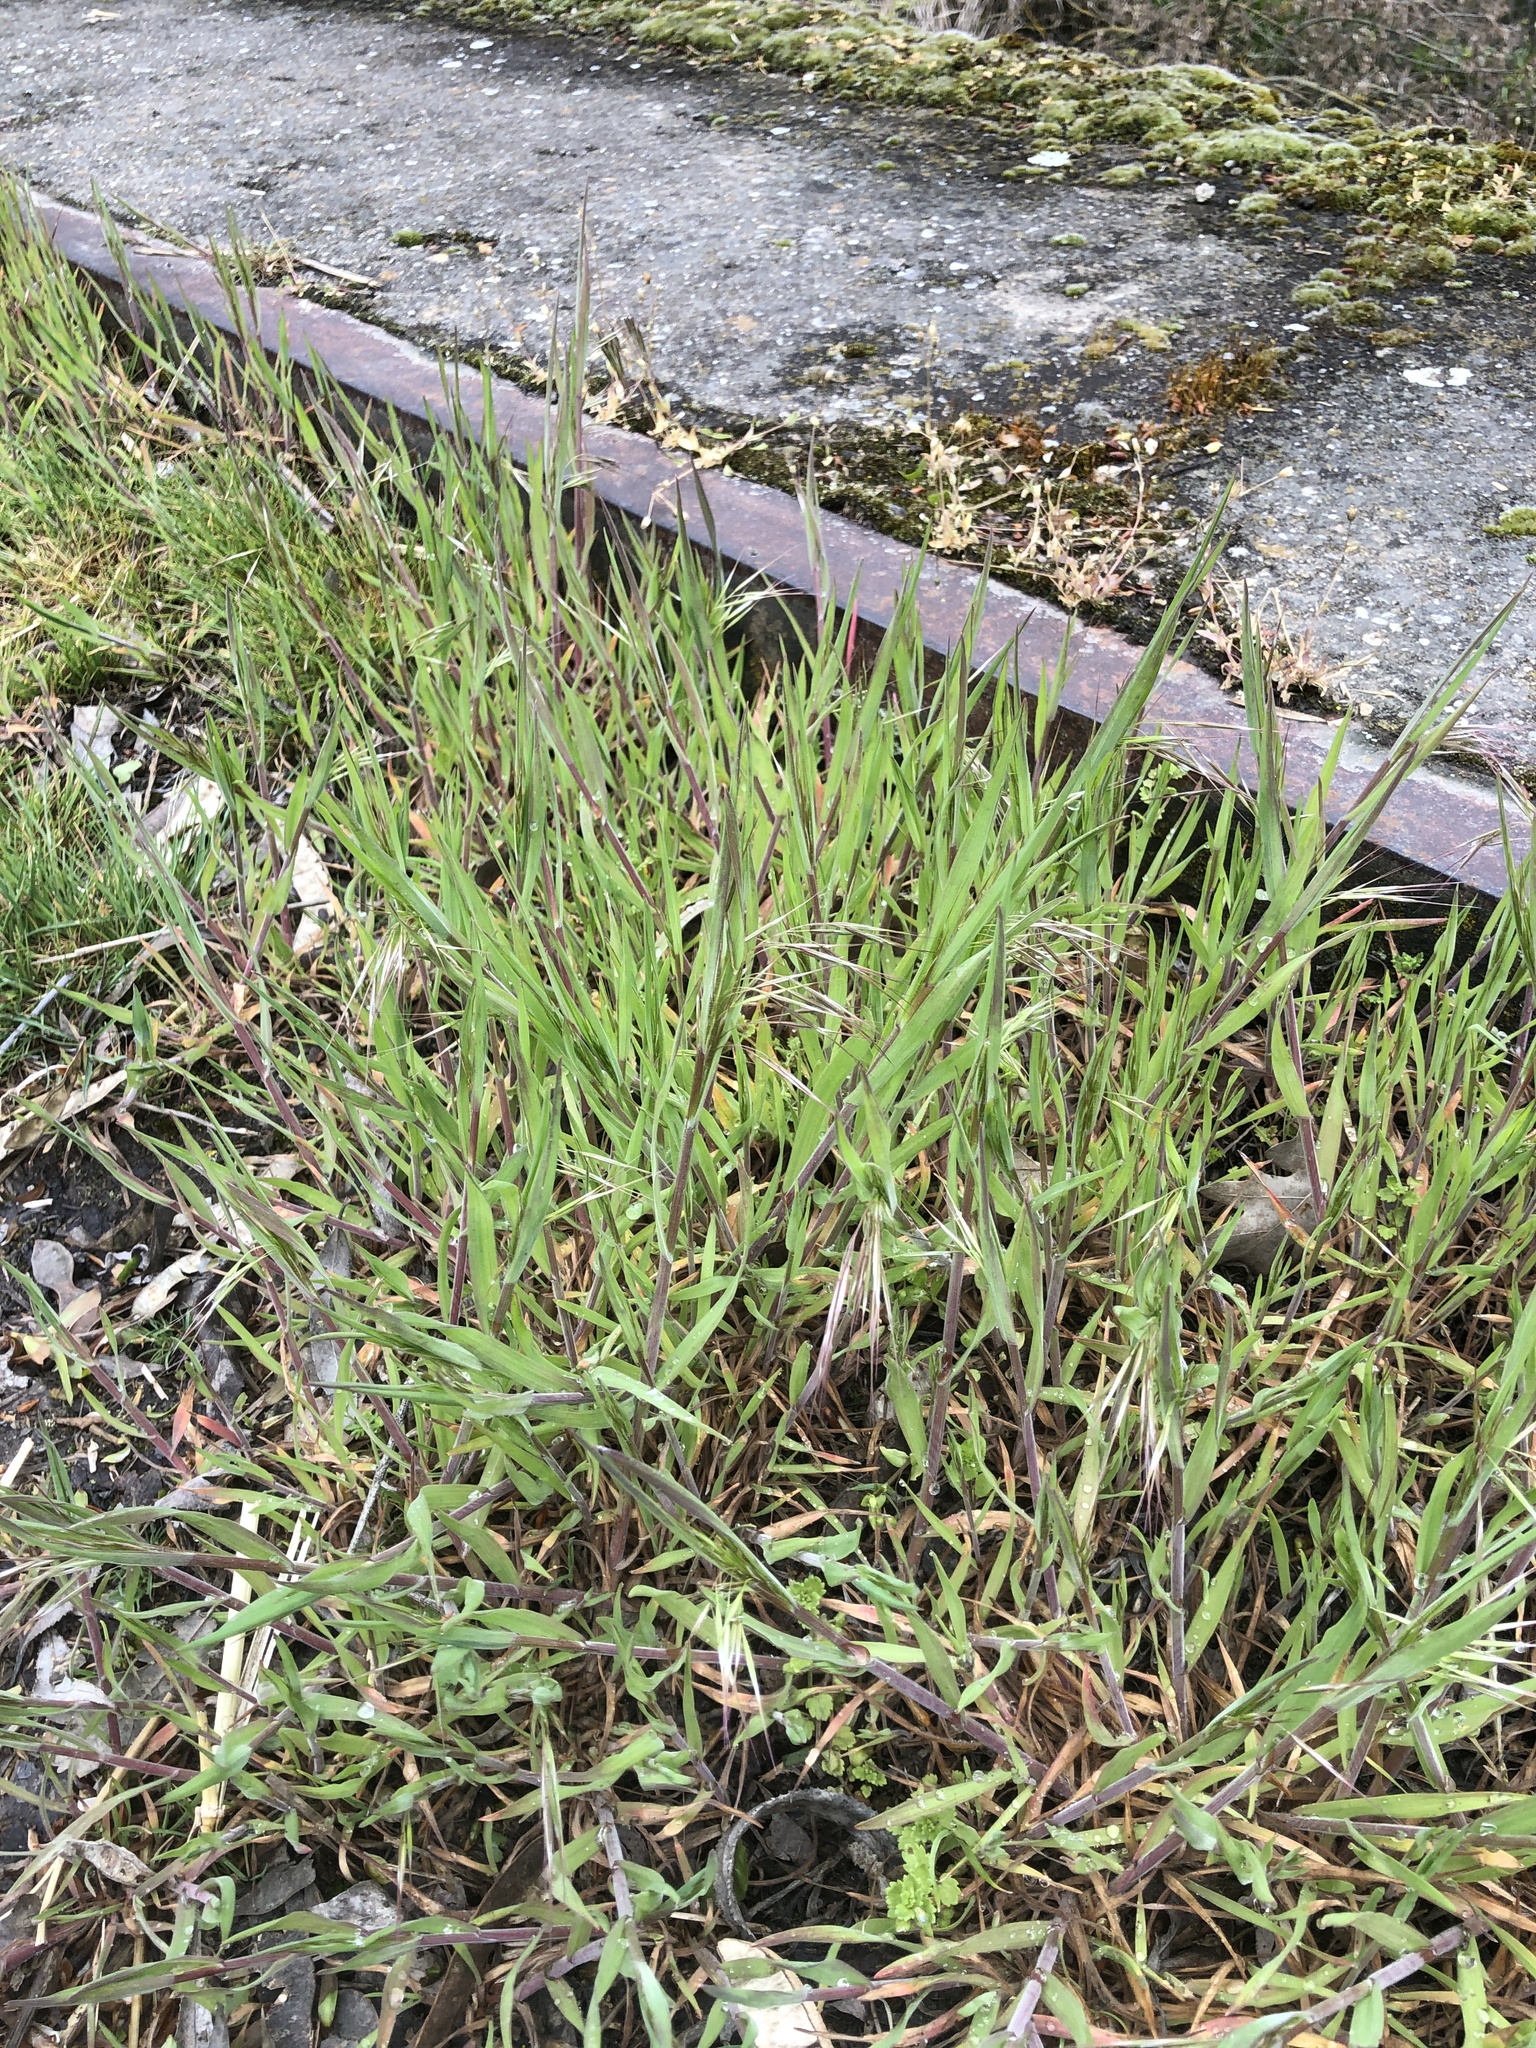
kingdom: Plantae
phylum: Tracheophyta
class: Liliopsida
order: Poales
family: Poaceae
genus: Bromus
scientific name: Bromus tectorum
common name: Cheatgrass
